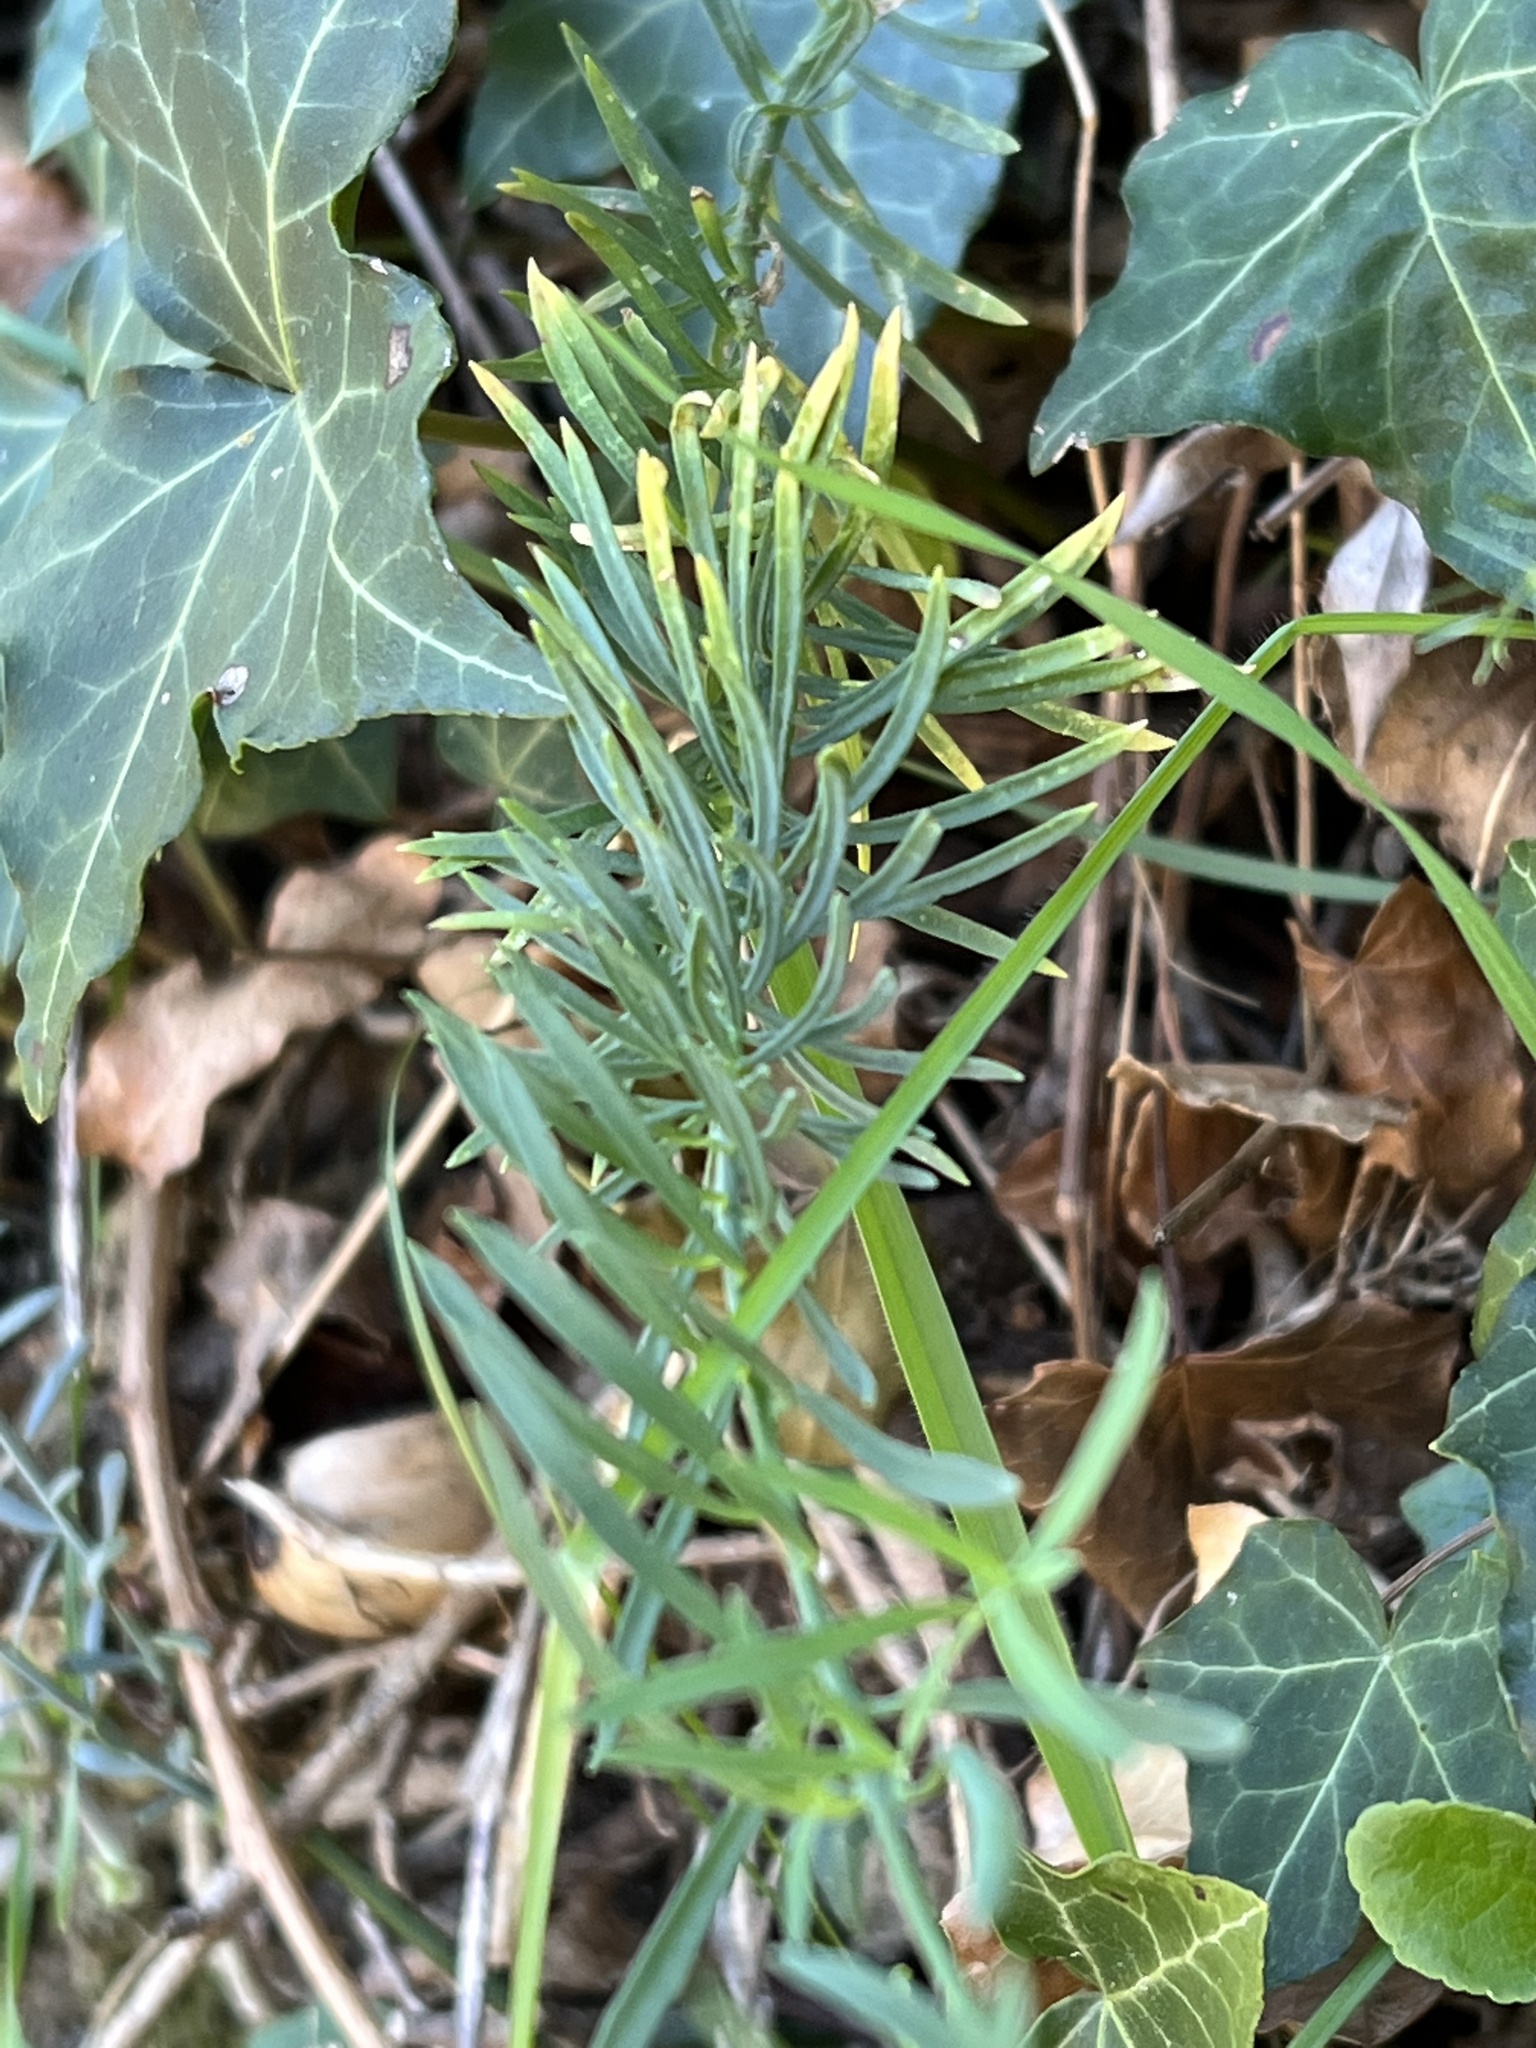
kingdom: Plantae
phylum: Tracheophyta
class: Magnoliopsida
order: Lamiales
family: Plantaginaceae
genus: Linaria
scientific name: Linaria repens
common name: Pale toadflax
